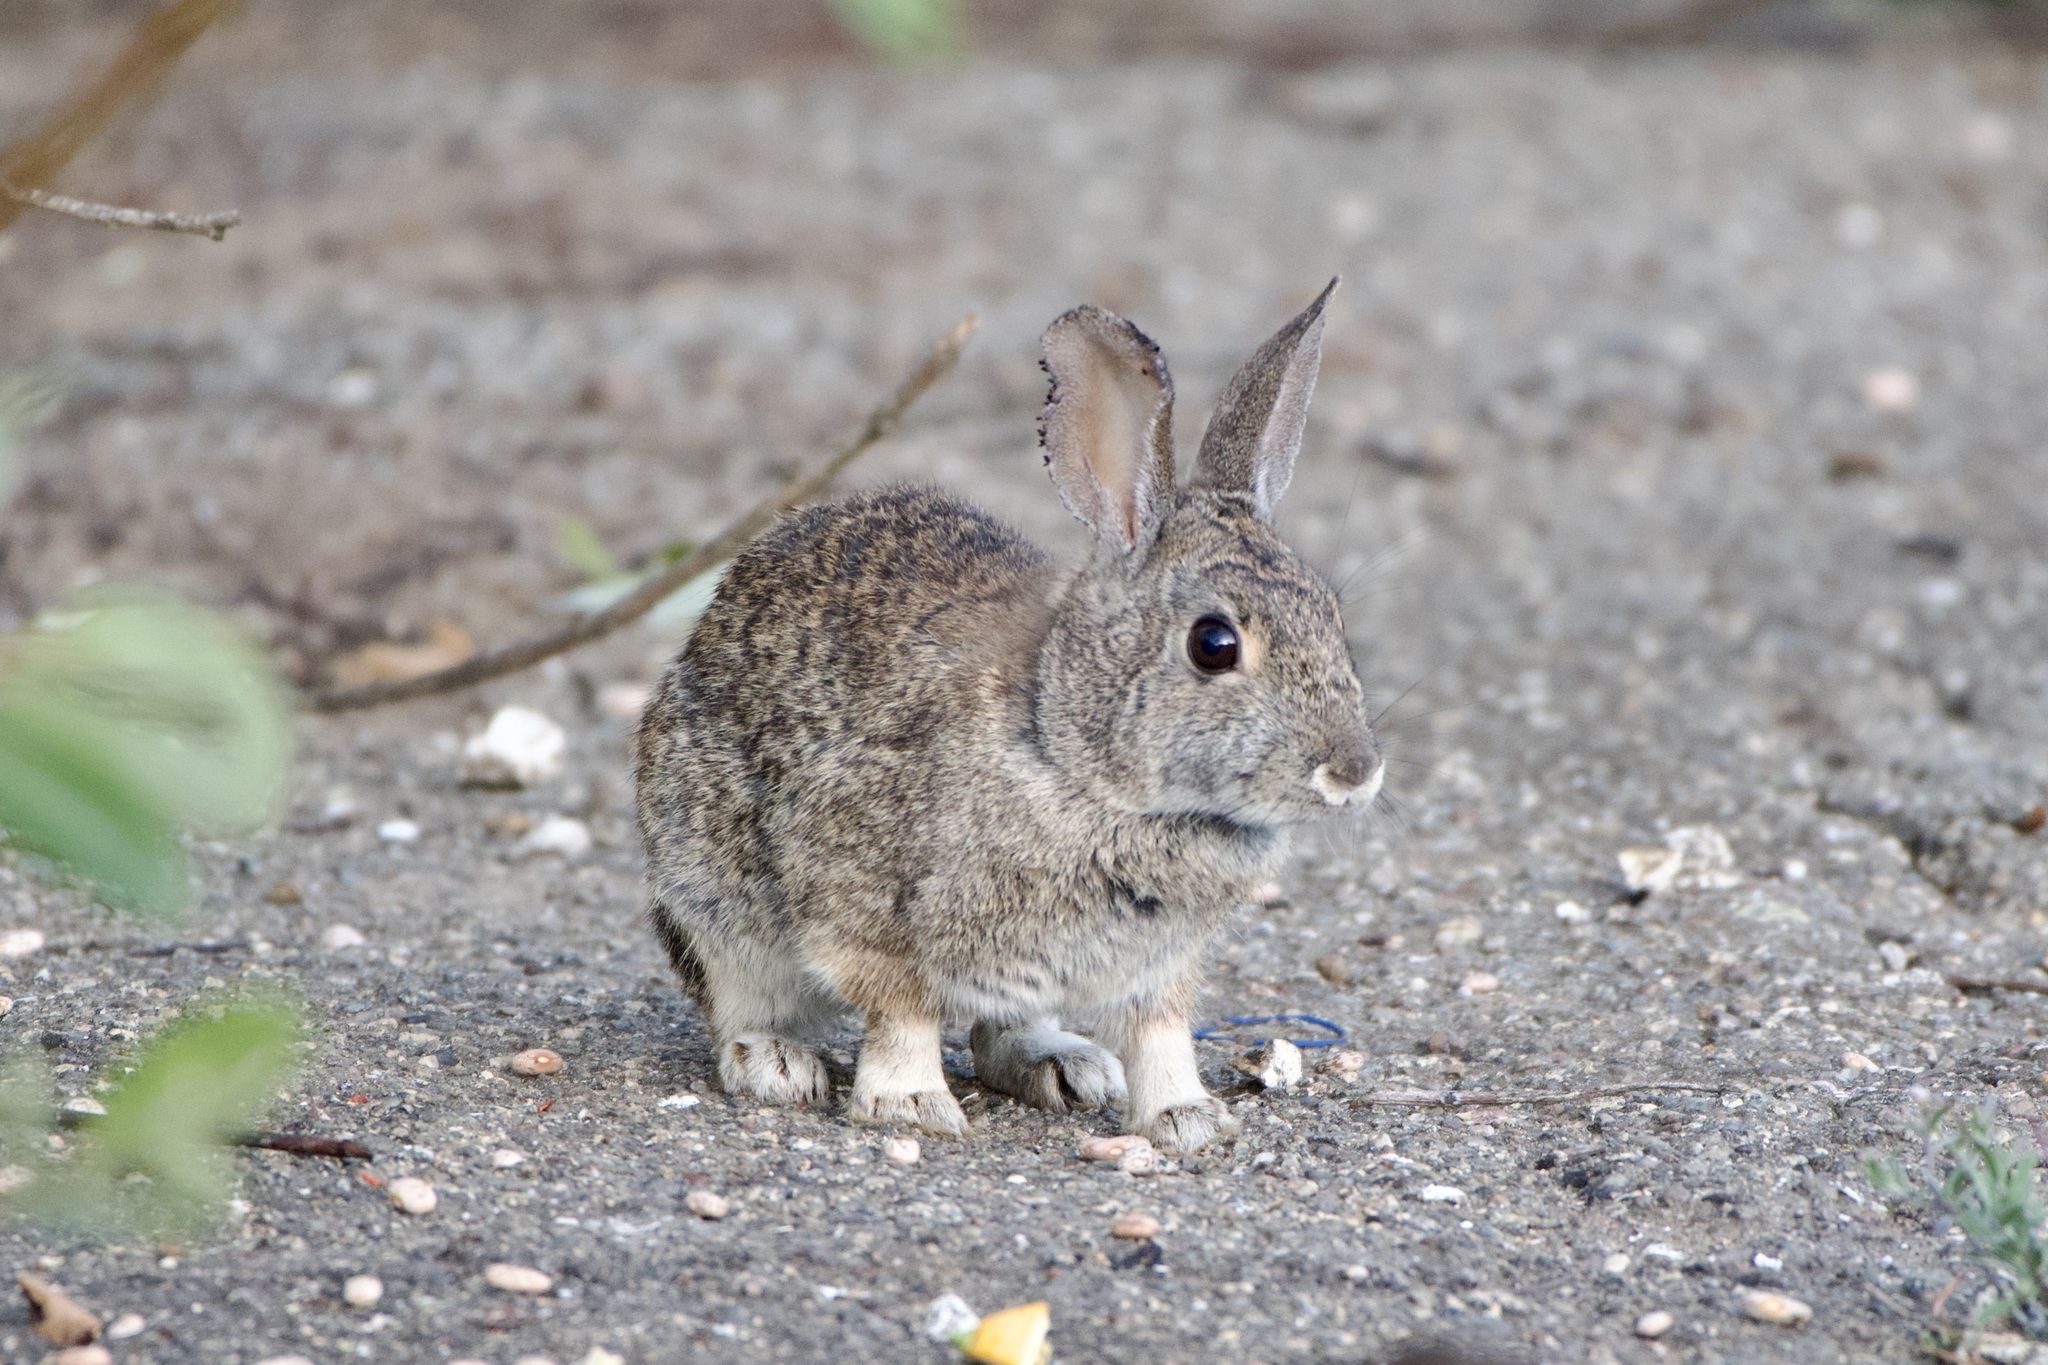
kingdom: Animalia
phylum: Chordata
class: Mammalia
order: Lagomorpha
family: Leporidae
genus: Sylvilagus
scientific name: Sylvilagus bachmani
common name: Brush rabbit
